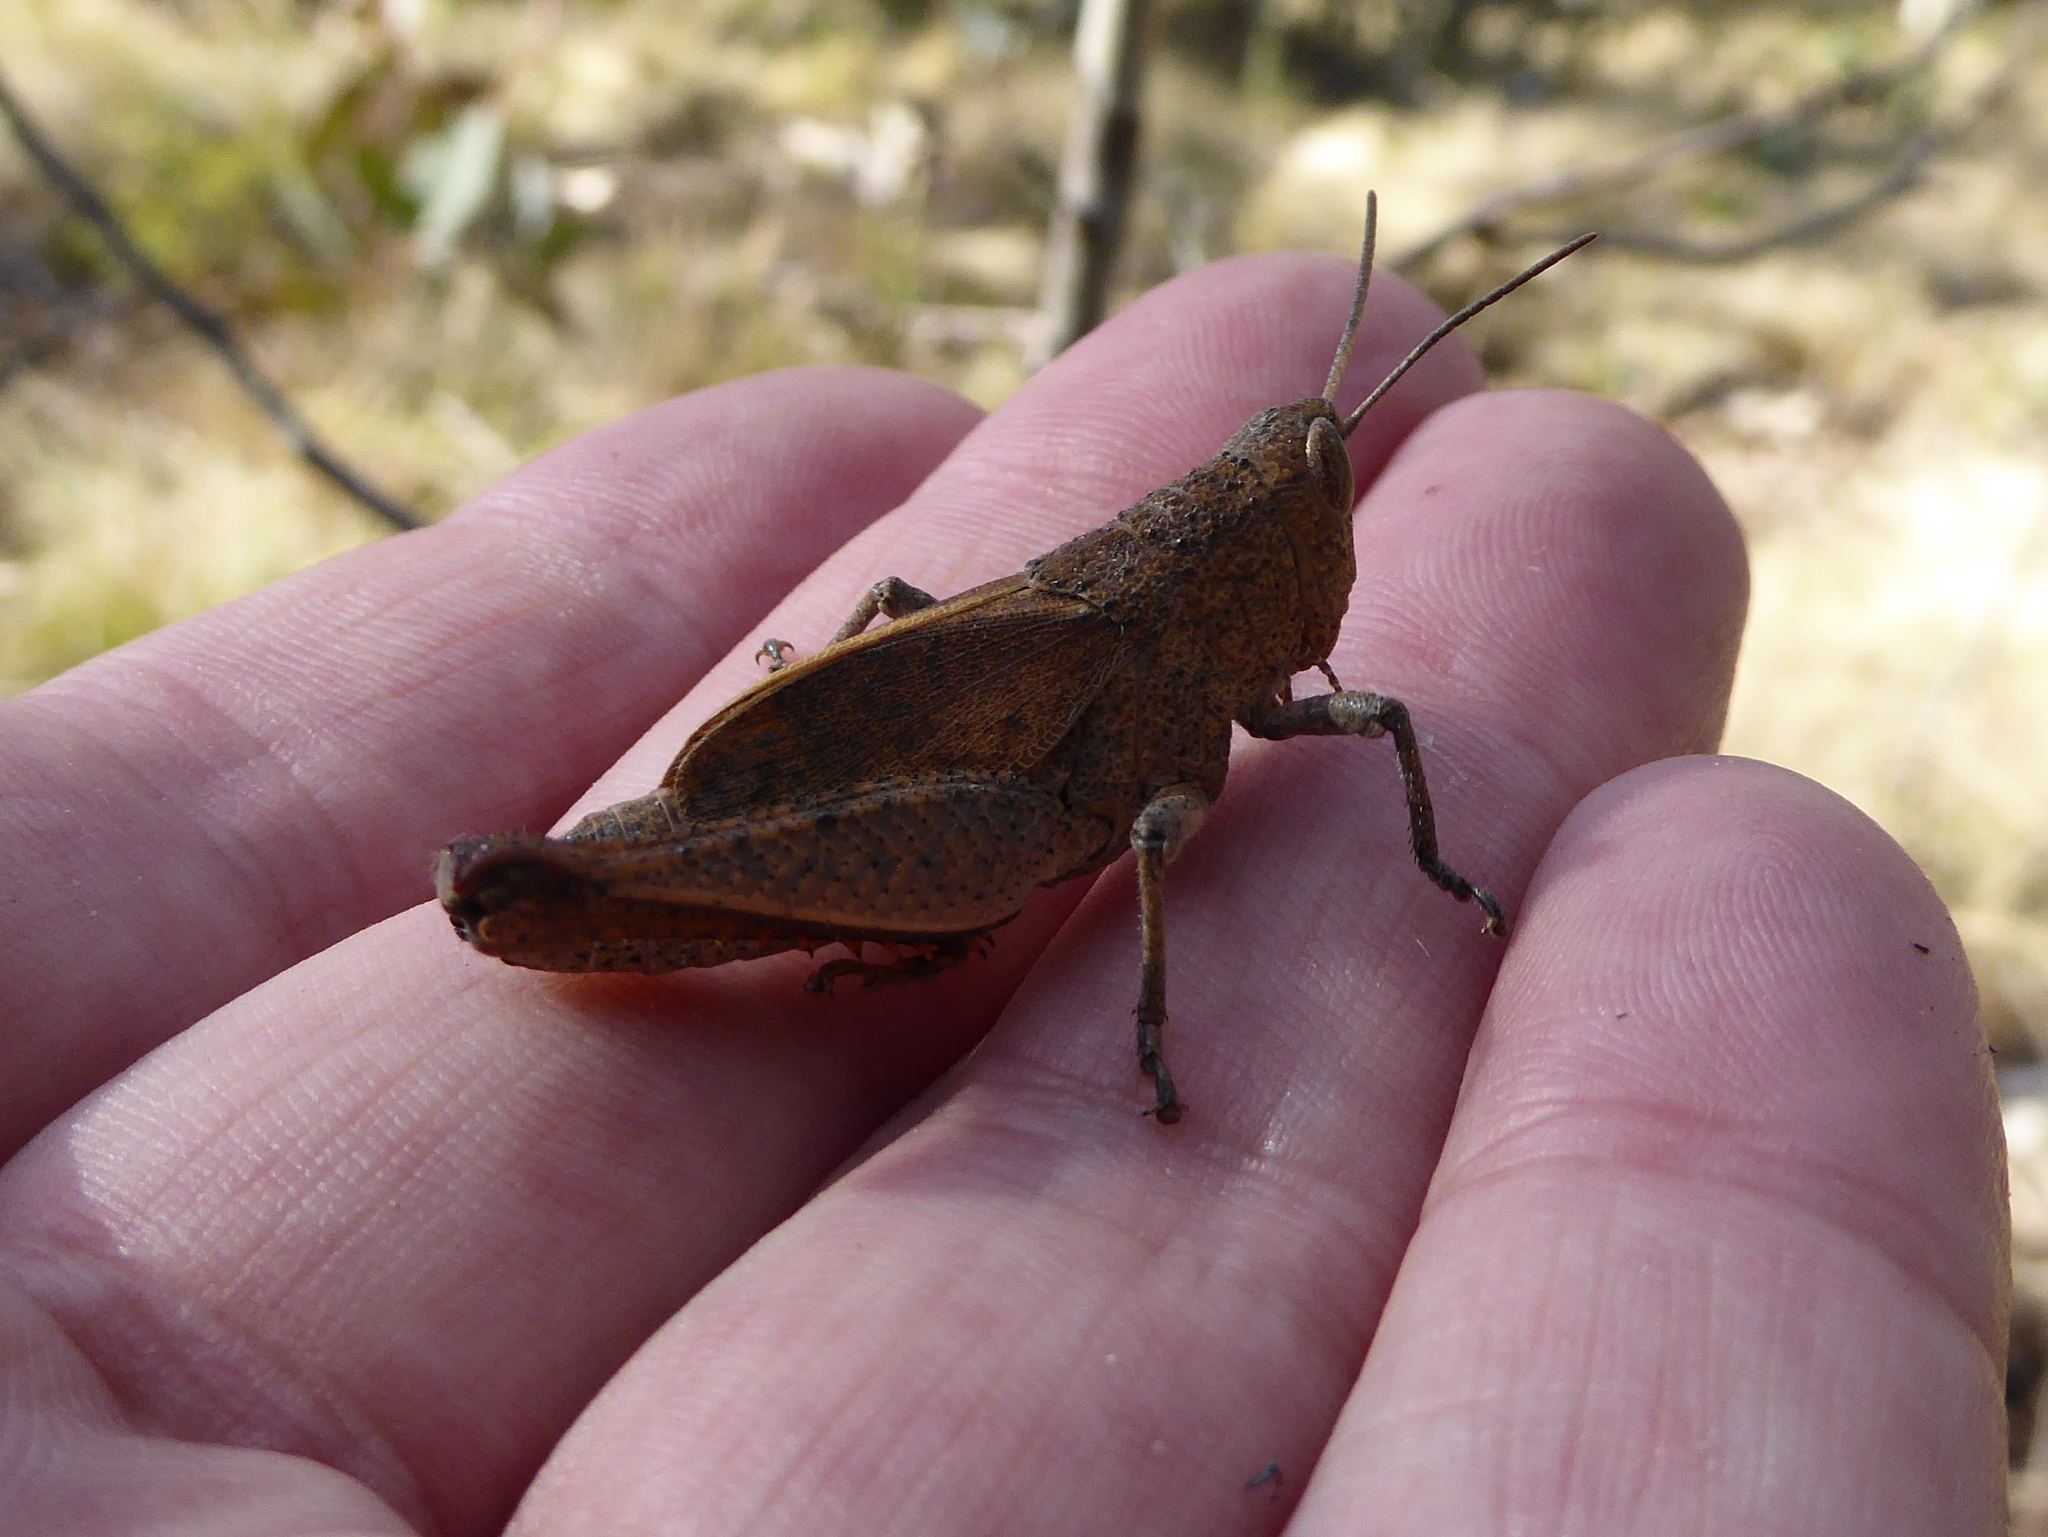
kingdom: Animalia
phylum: Arthropoda
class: Insecta
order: Orthoptera
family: Acrididae
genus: Rhitzala
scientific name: Rhitzala modesta
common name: Short-winged heath grasshopper
